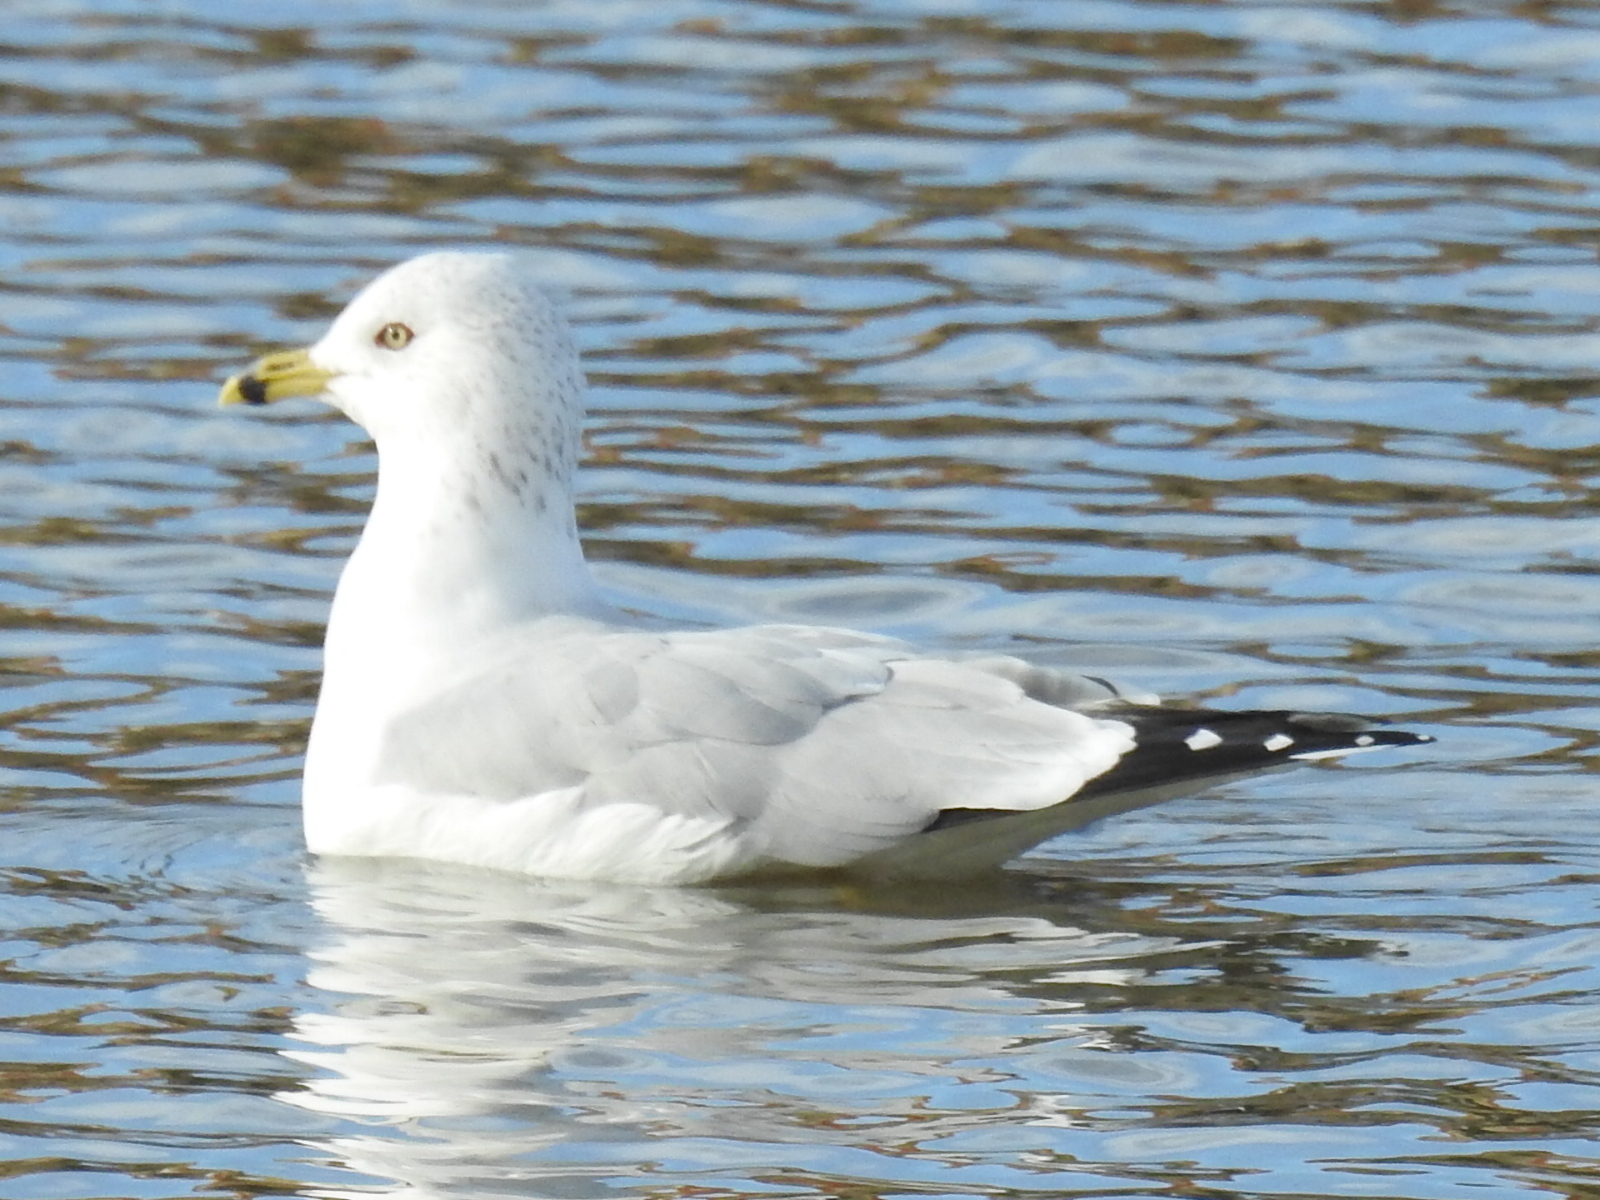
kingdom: Animalia
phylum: Chordata
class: Aves
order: Charadriiformes
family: Laridae
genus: Larus
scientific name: Larus delawarensis
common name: Ring-billed gull
